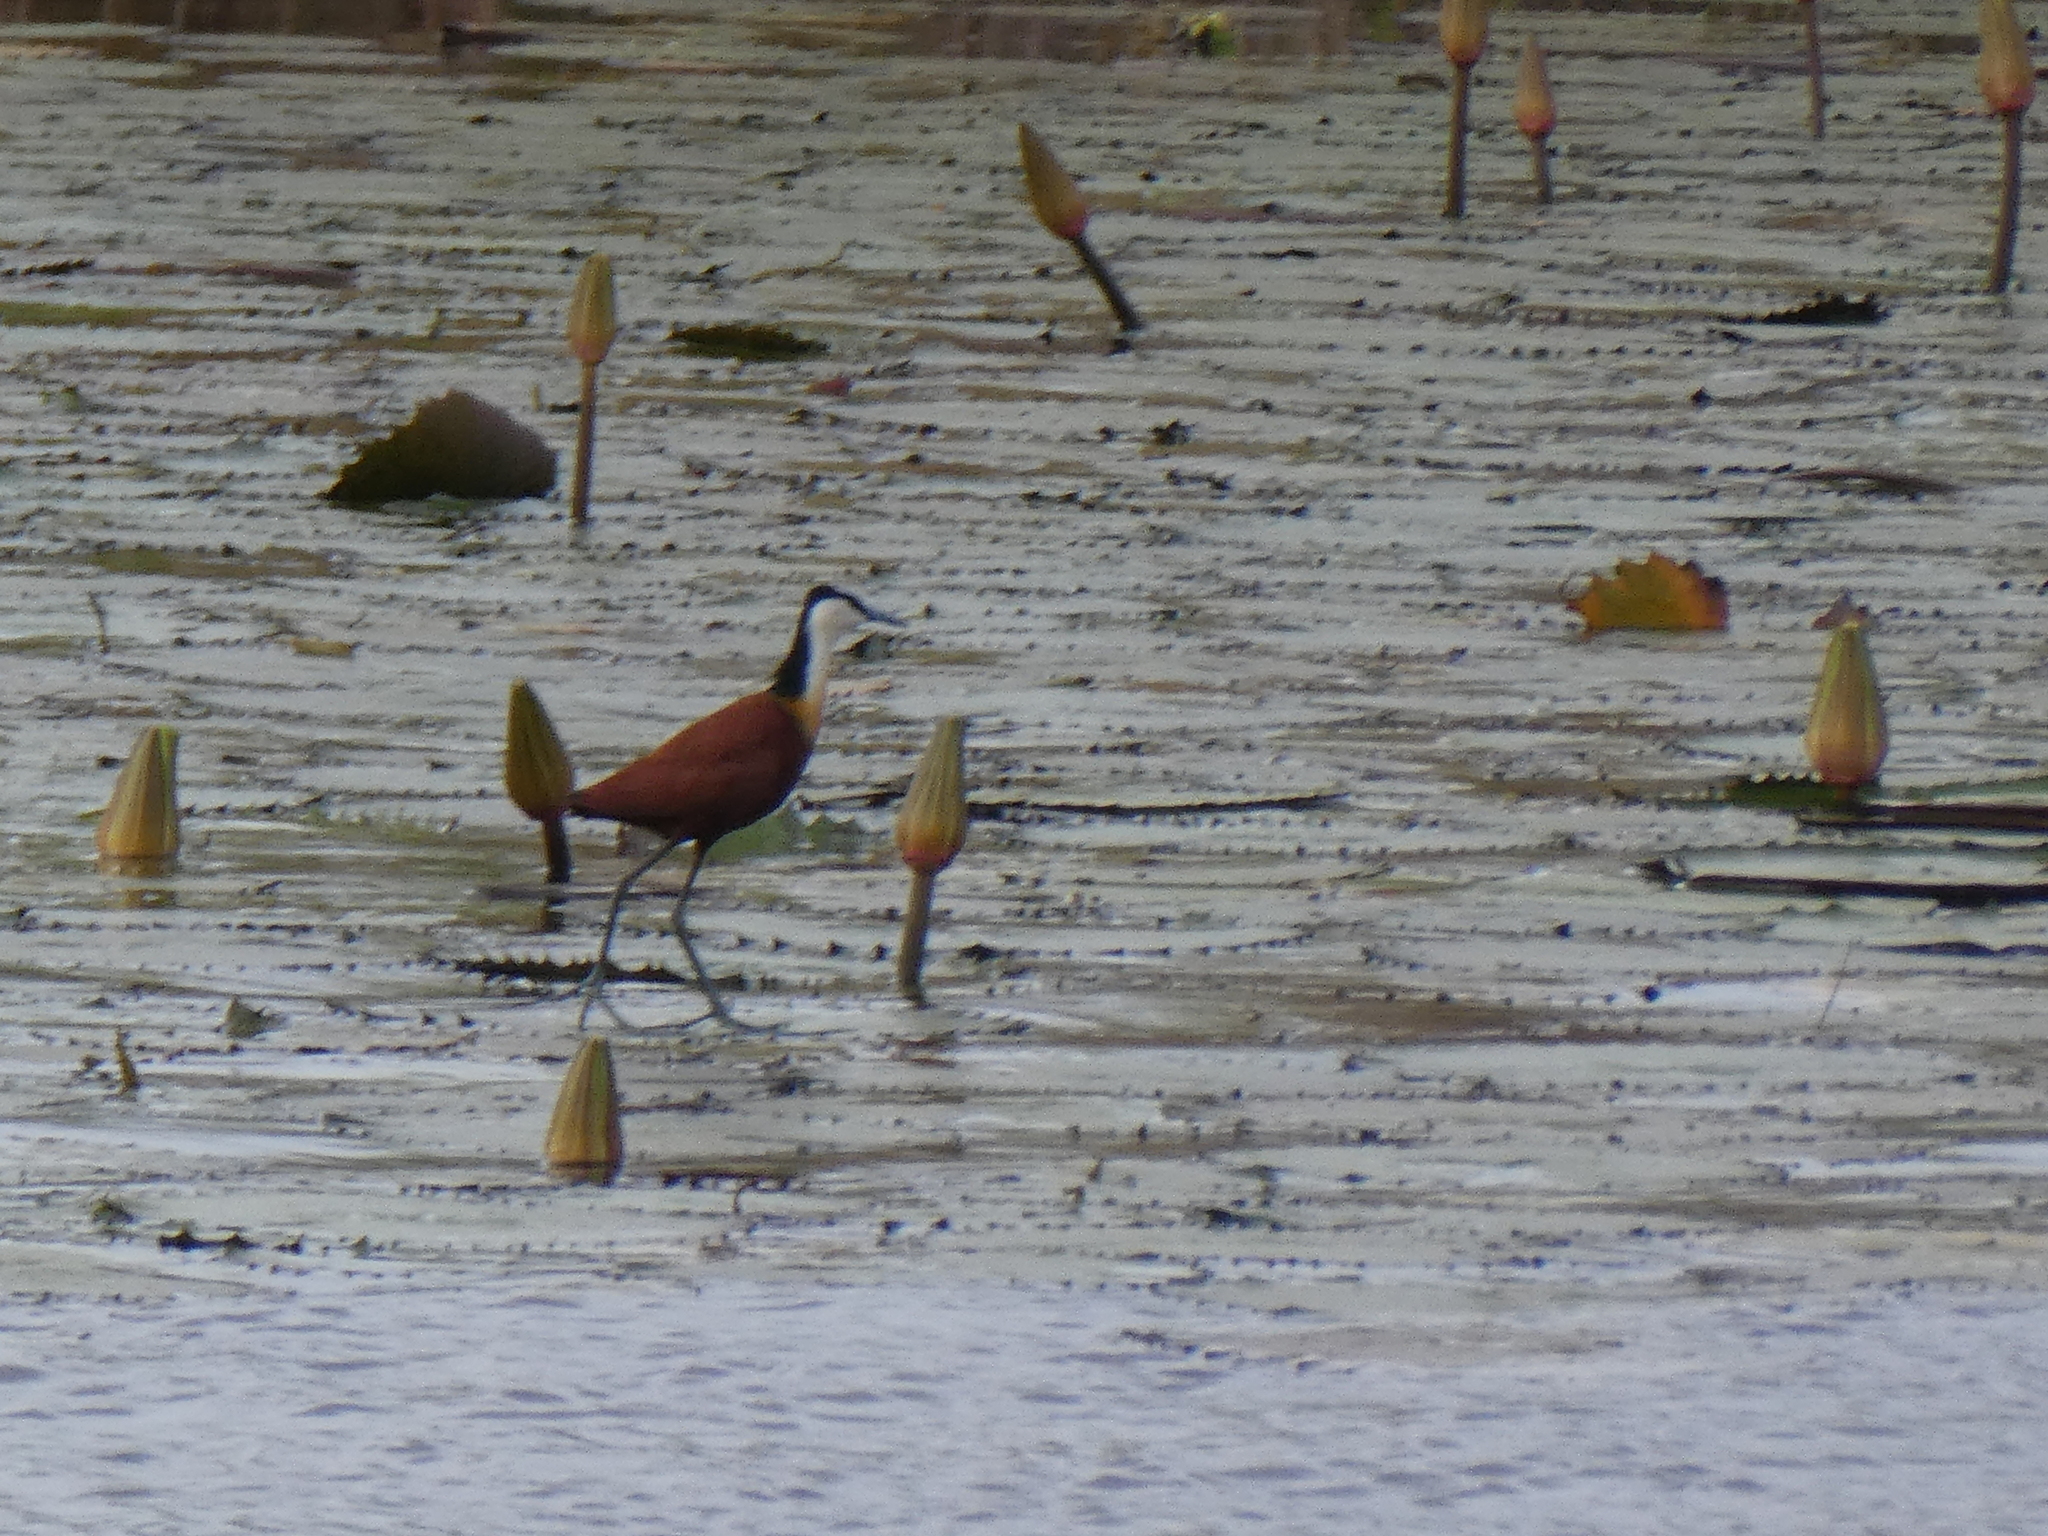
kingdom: Animalia
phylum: Chordata
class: Aves
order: Charadriiformes
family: Jacanidae
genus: Actophilornis
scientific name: Actophilornis africanus
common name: African jacana
